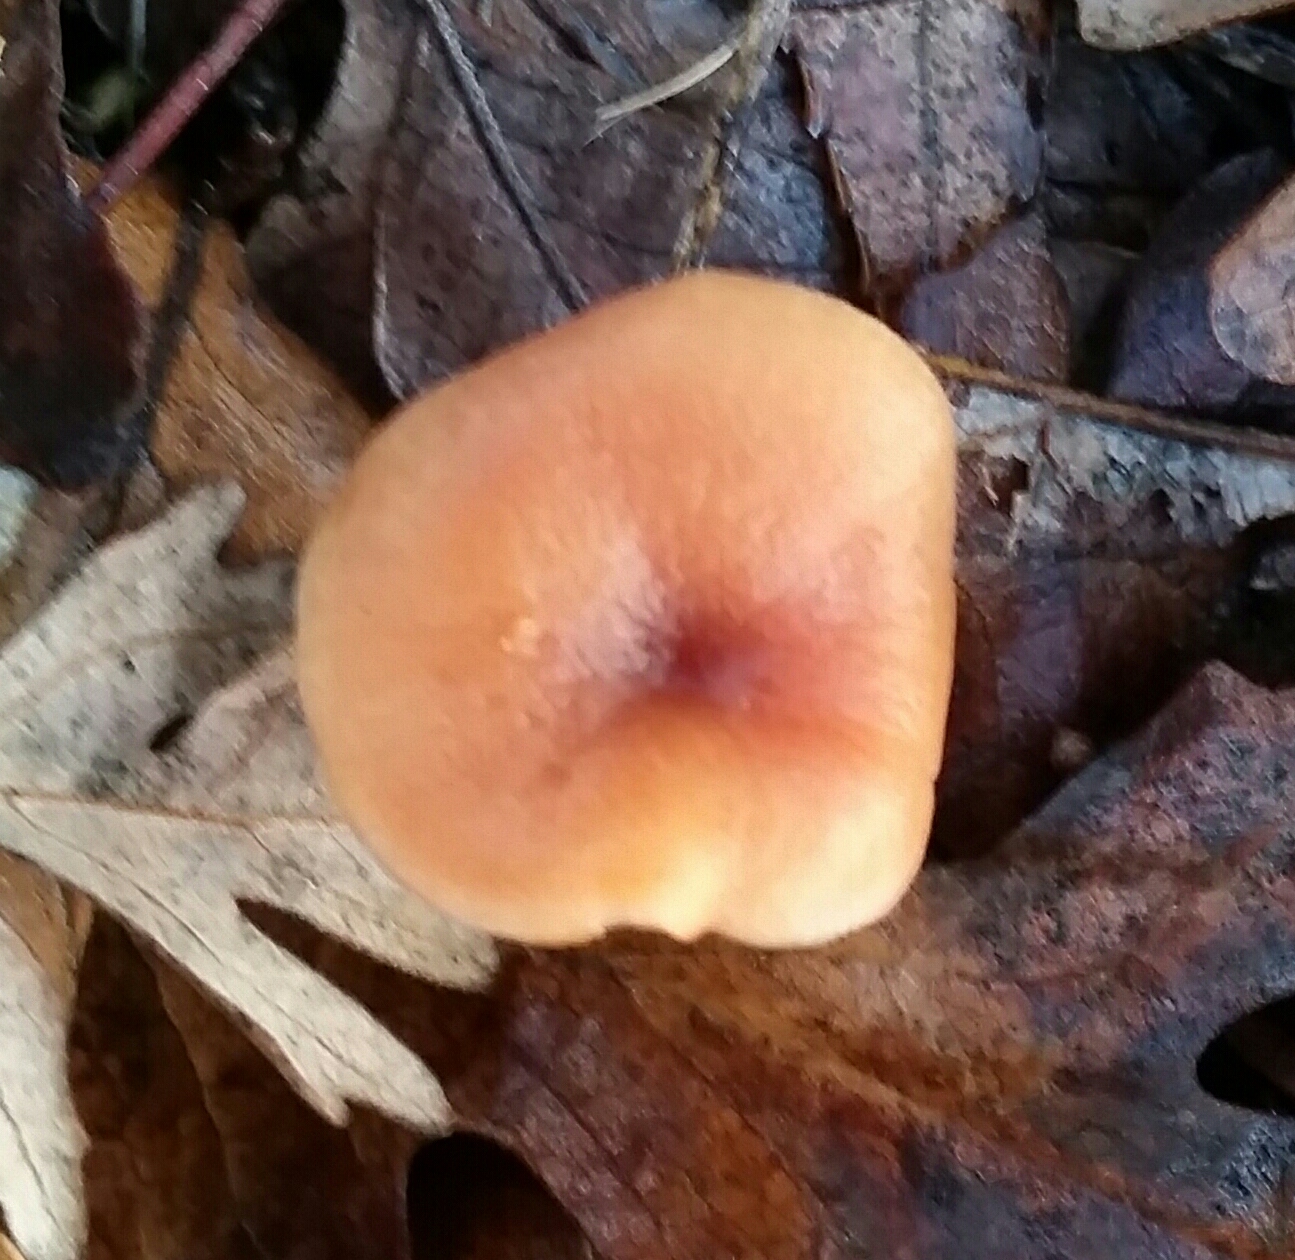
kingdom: Fungi
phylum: Basidiomycota
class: Agaricomycetes
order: Agaricales
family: Hydnangiaceae
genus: Laccaria
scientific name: Laccaria laccata
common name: Deceiver
